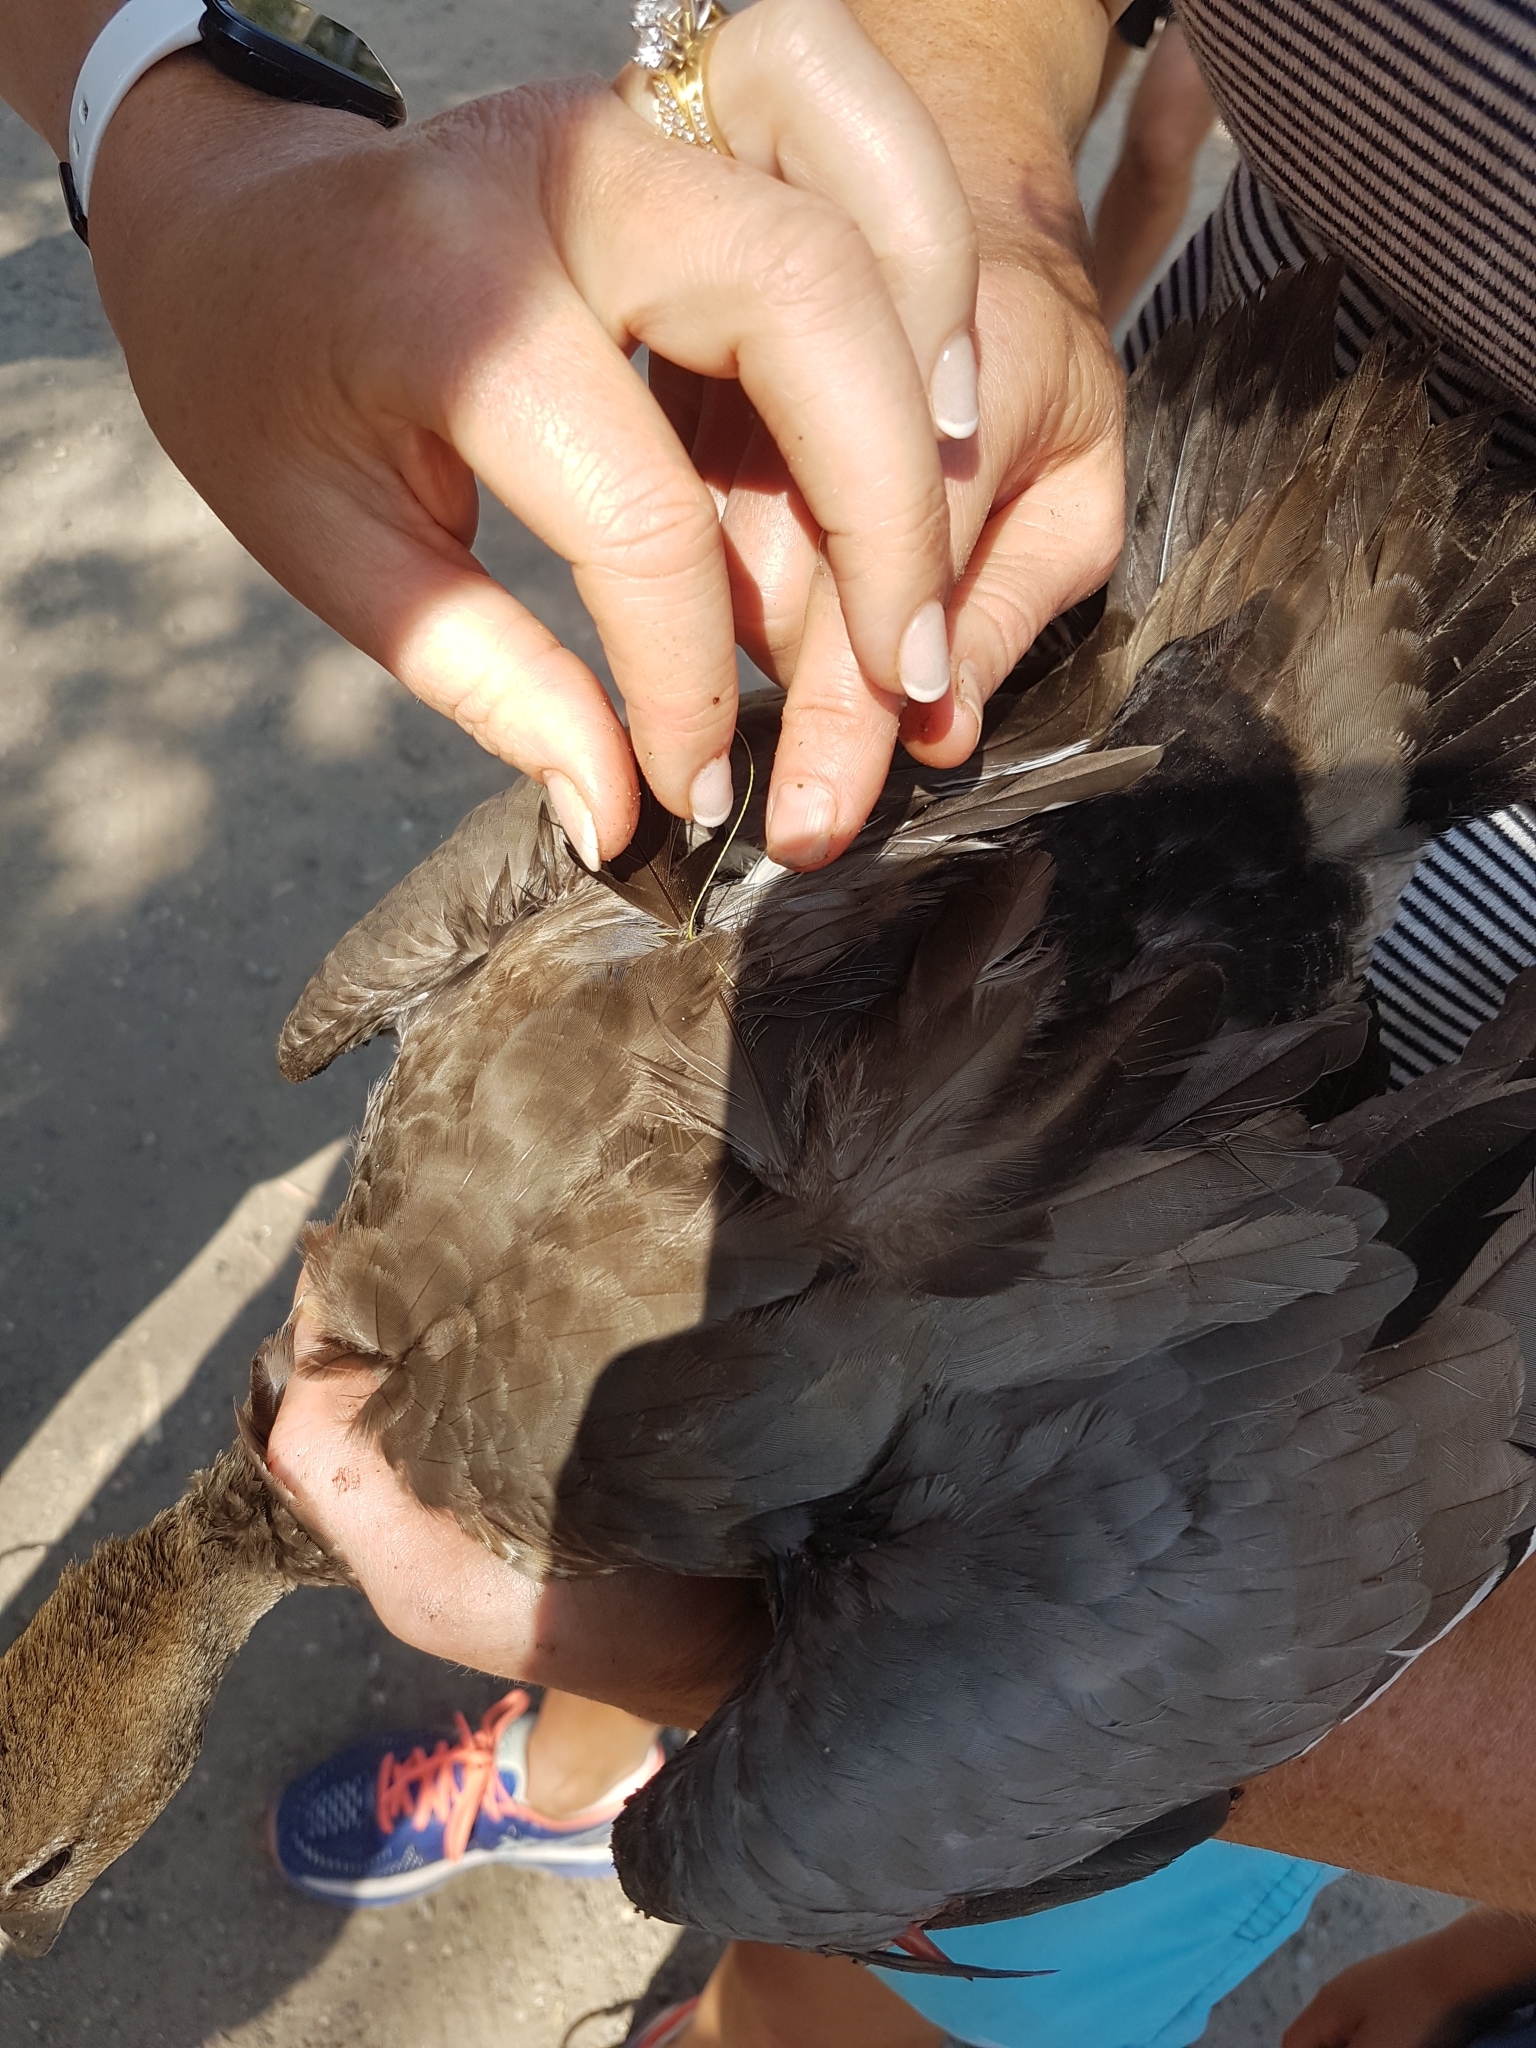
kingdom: Animalia
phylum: Chordata
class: Aves
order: Anseriformes
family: Anatidae
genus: Chenonetta
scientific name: Chenonetta jubata
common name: Maned duck
